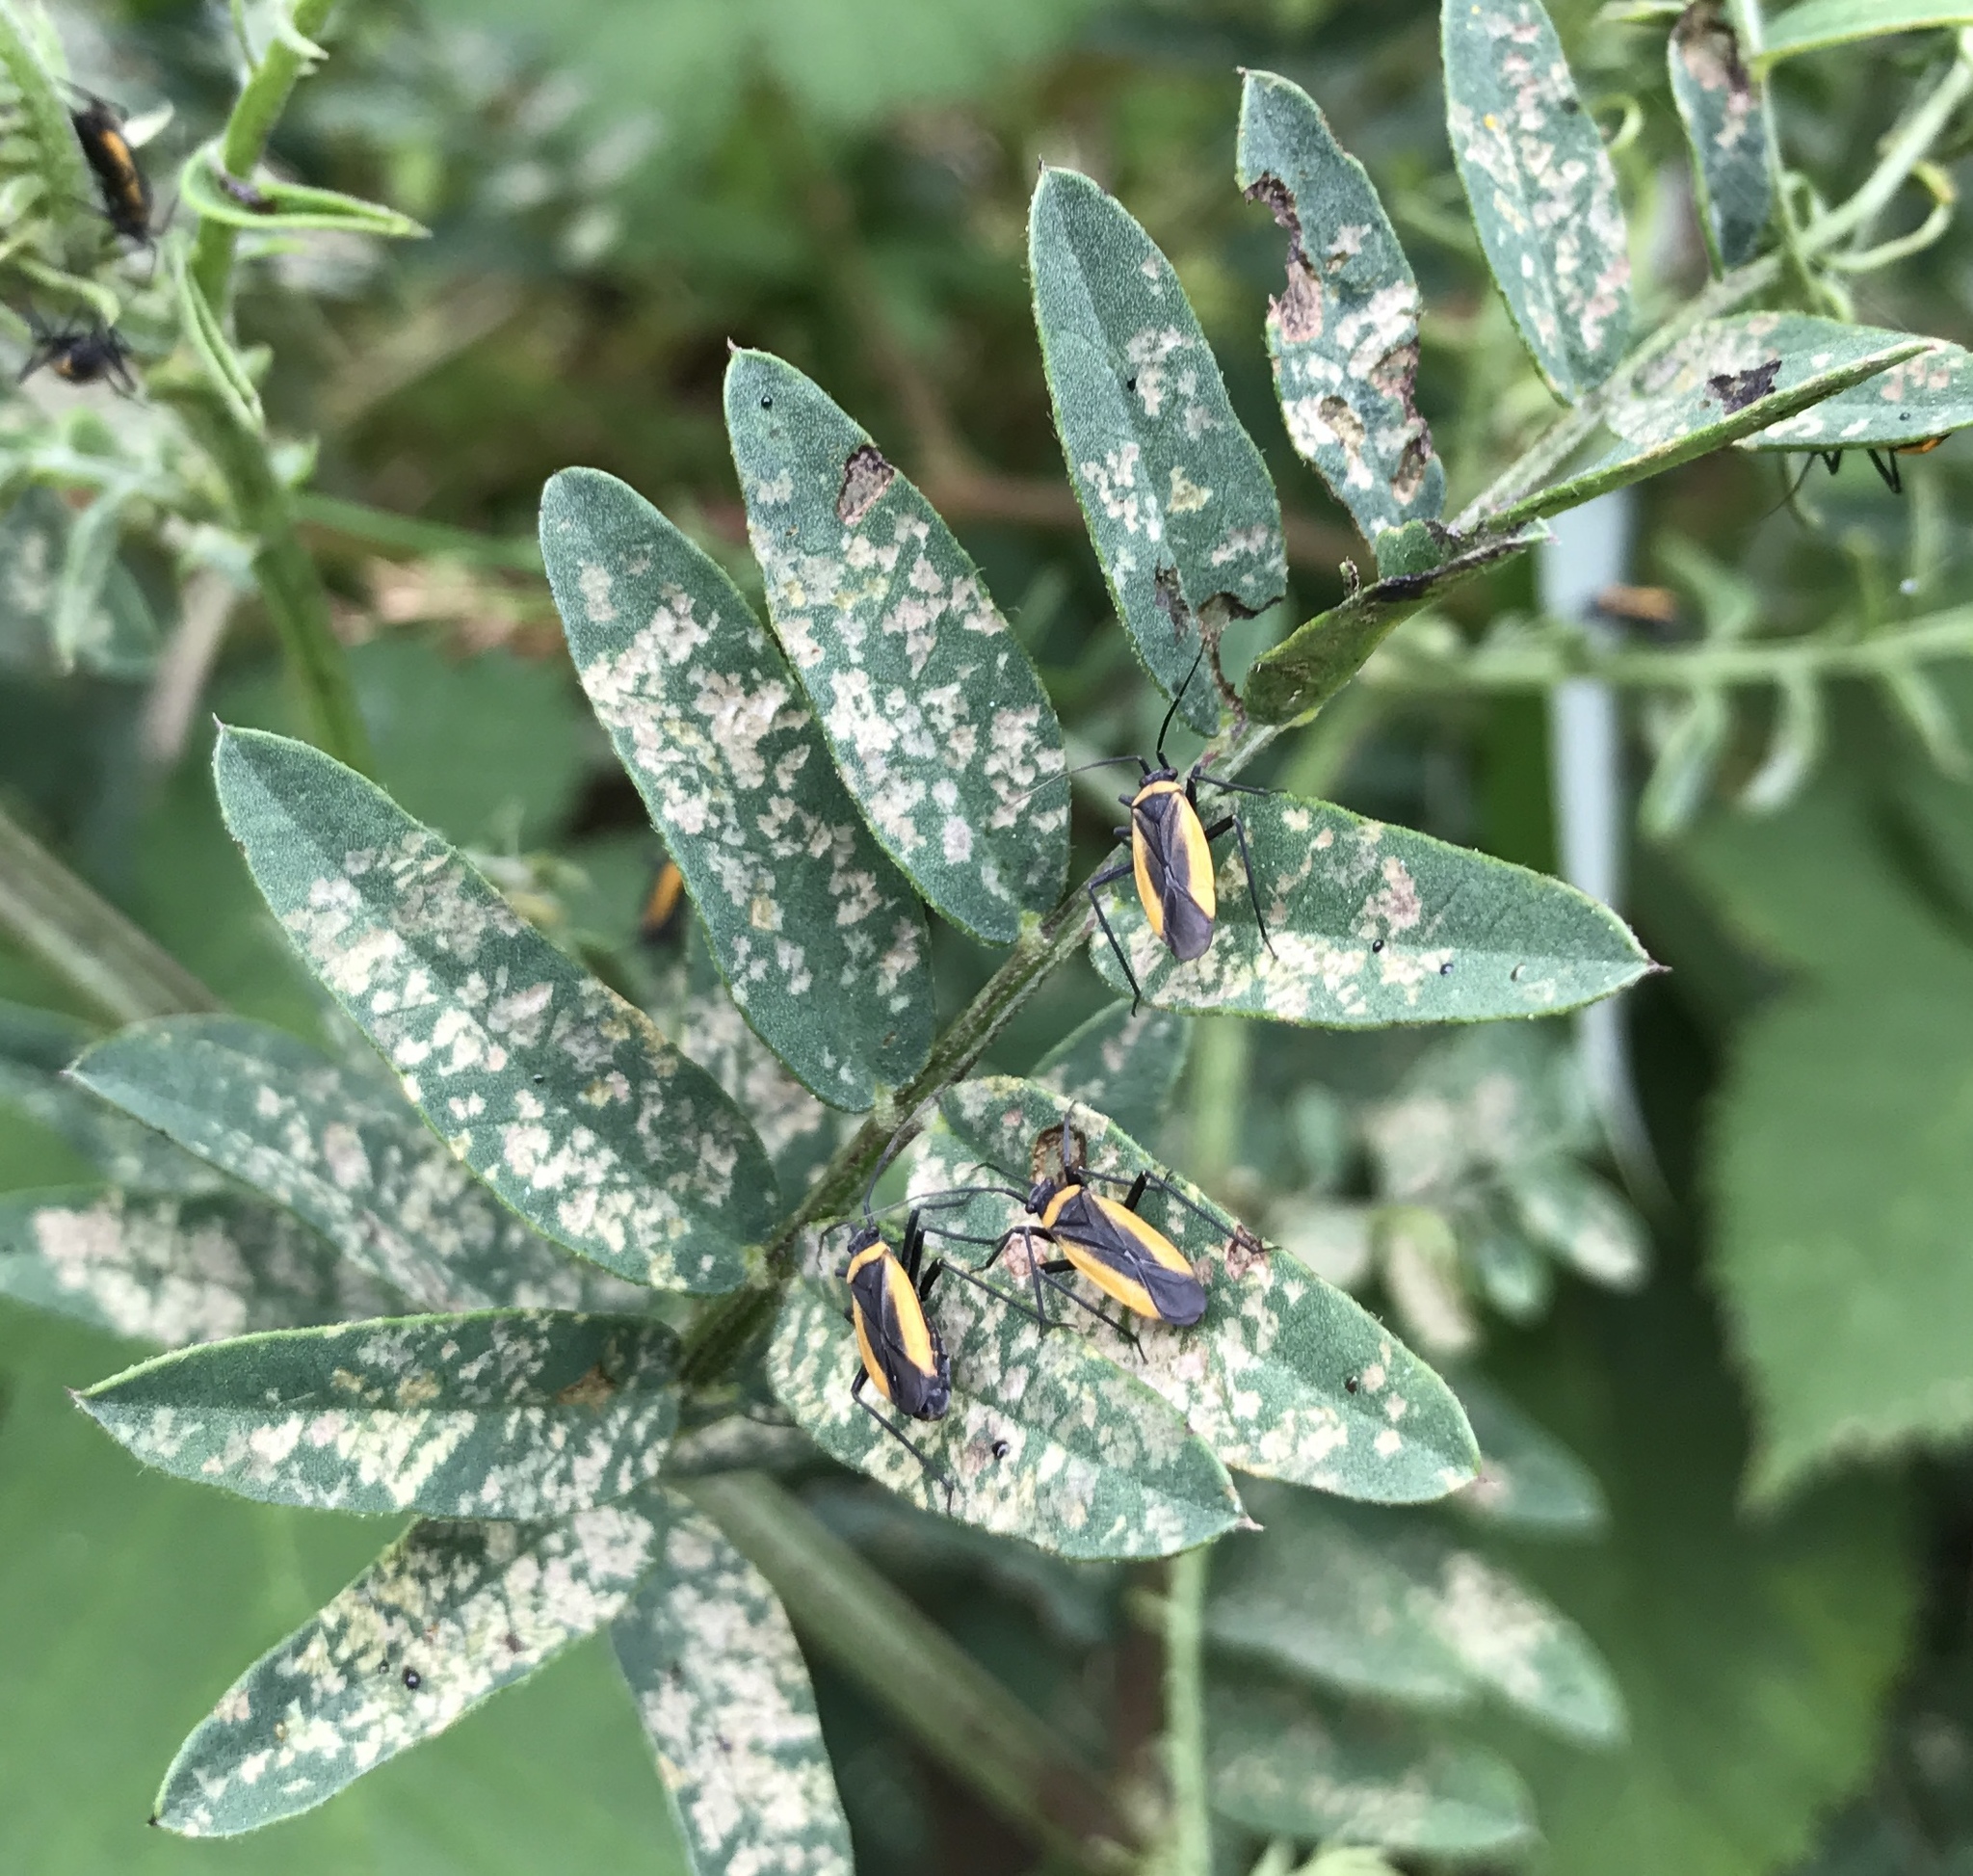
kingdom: Animalia
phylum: Arthropoda
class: Insecta
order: Hemiptera
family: Miridae
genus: Lopidea
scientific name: Lopidea ampla
